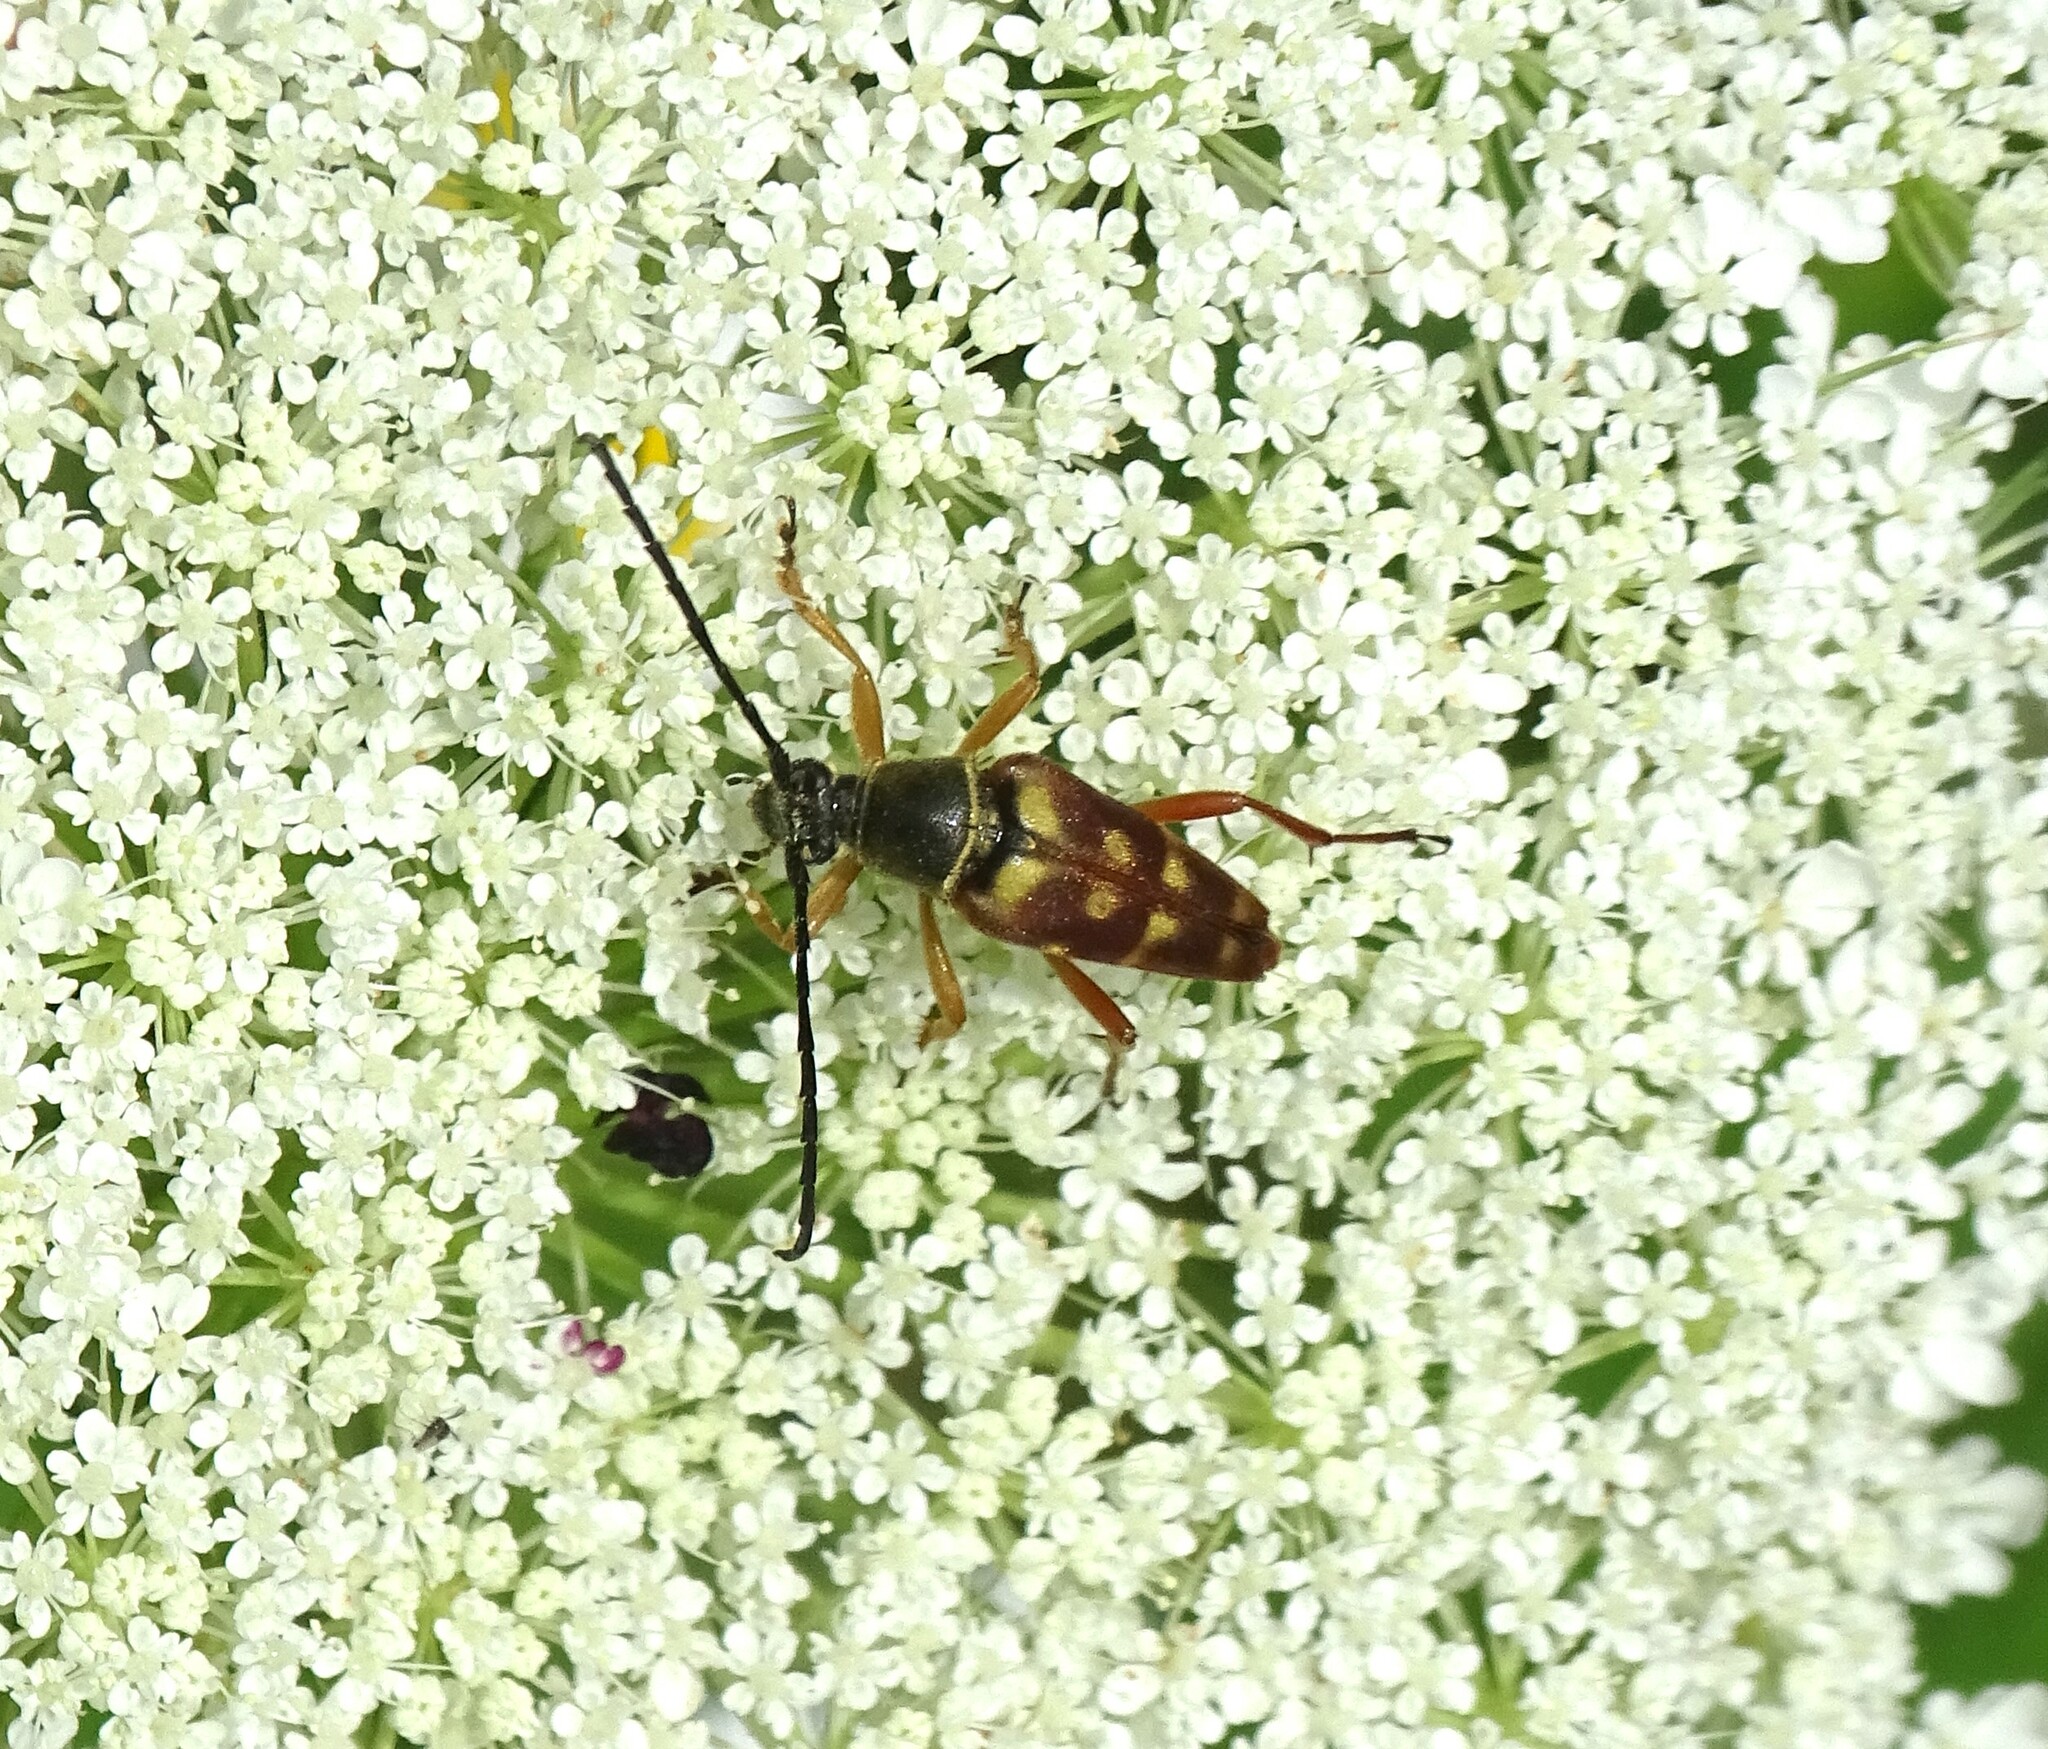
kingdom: Animalia
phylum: Arthropoda
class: Insecta
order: Coleoptera
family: Cerambycidae
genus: Typocerus
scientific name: Typocerus velutinus
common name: Banded longhorn beetle
